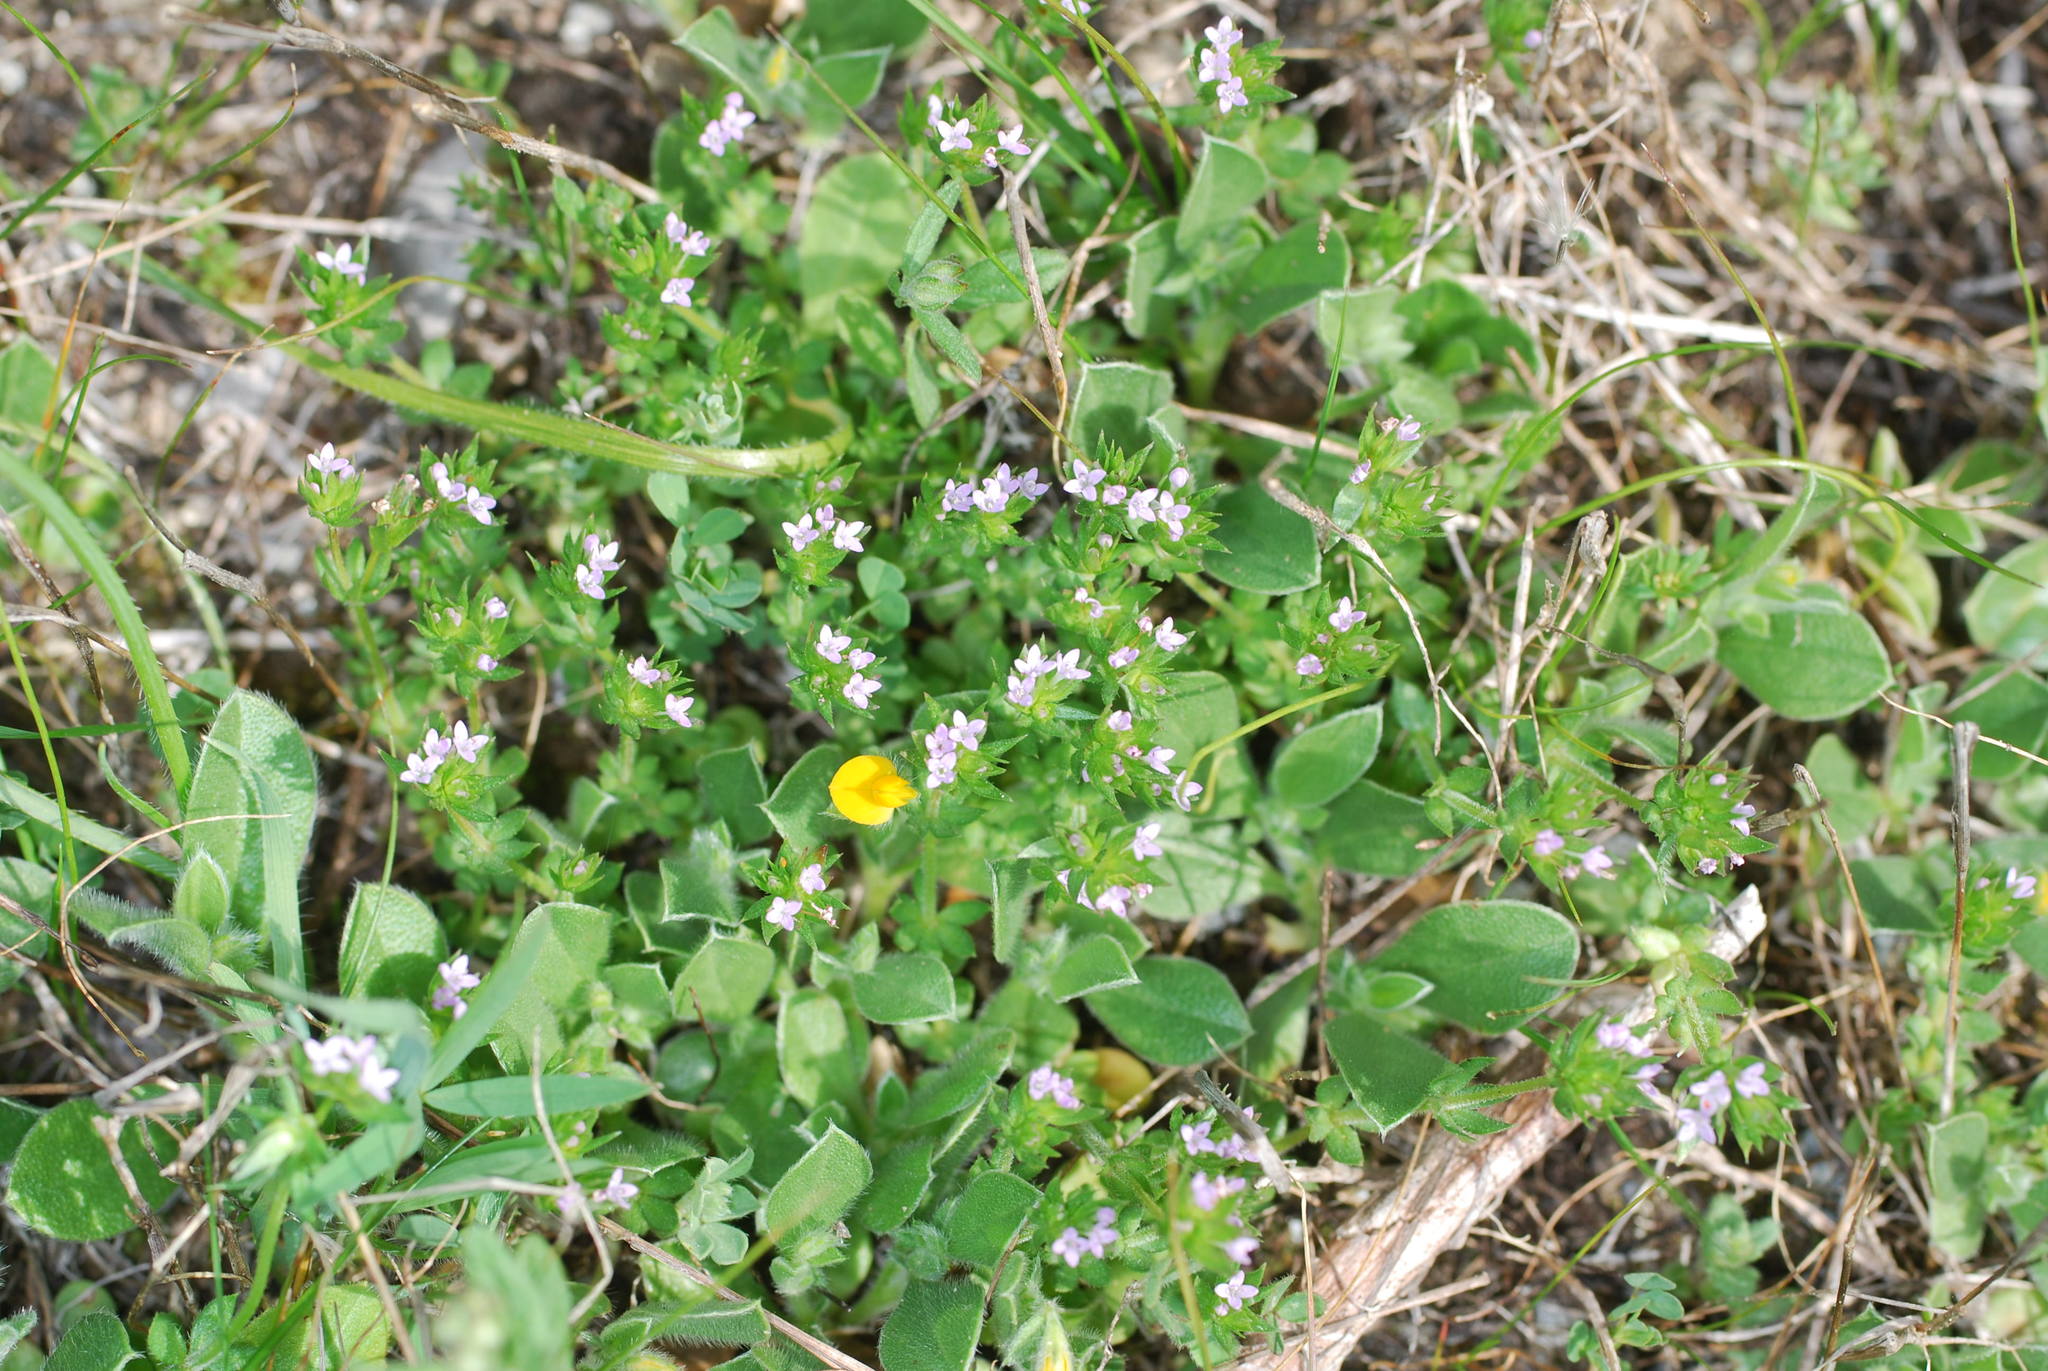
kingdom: Plantae
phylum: Tracheophyta
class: Magnoliopsida
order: Gentianales
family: Rubiaceae
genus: Sherardia
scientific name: Sherardia arvensis
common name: Field madder
